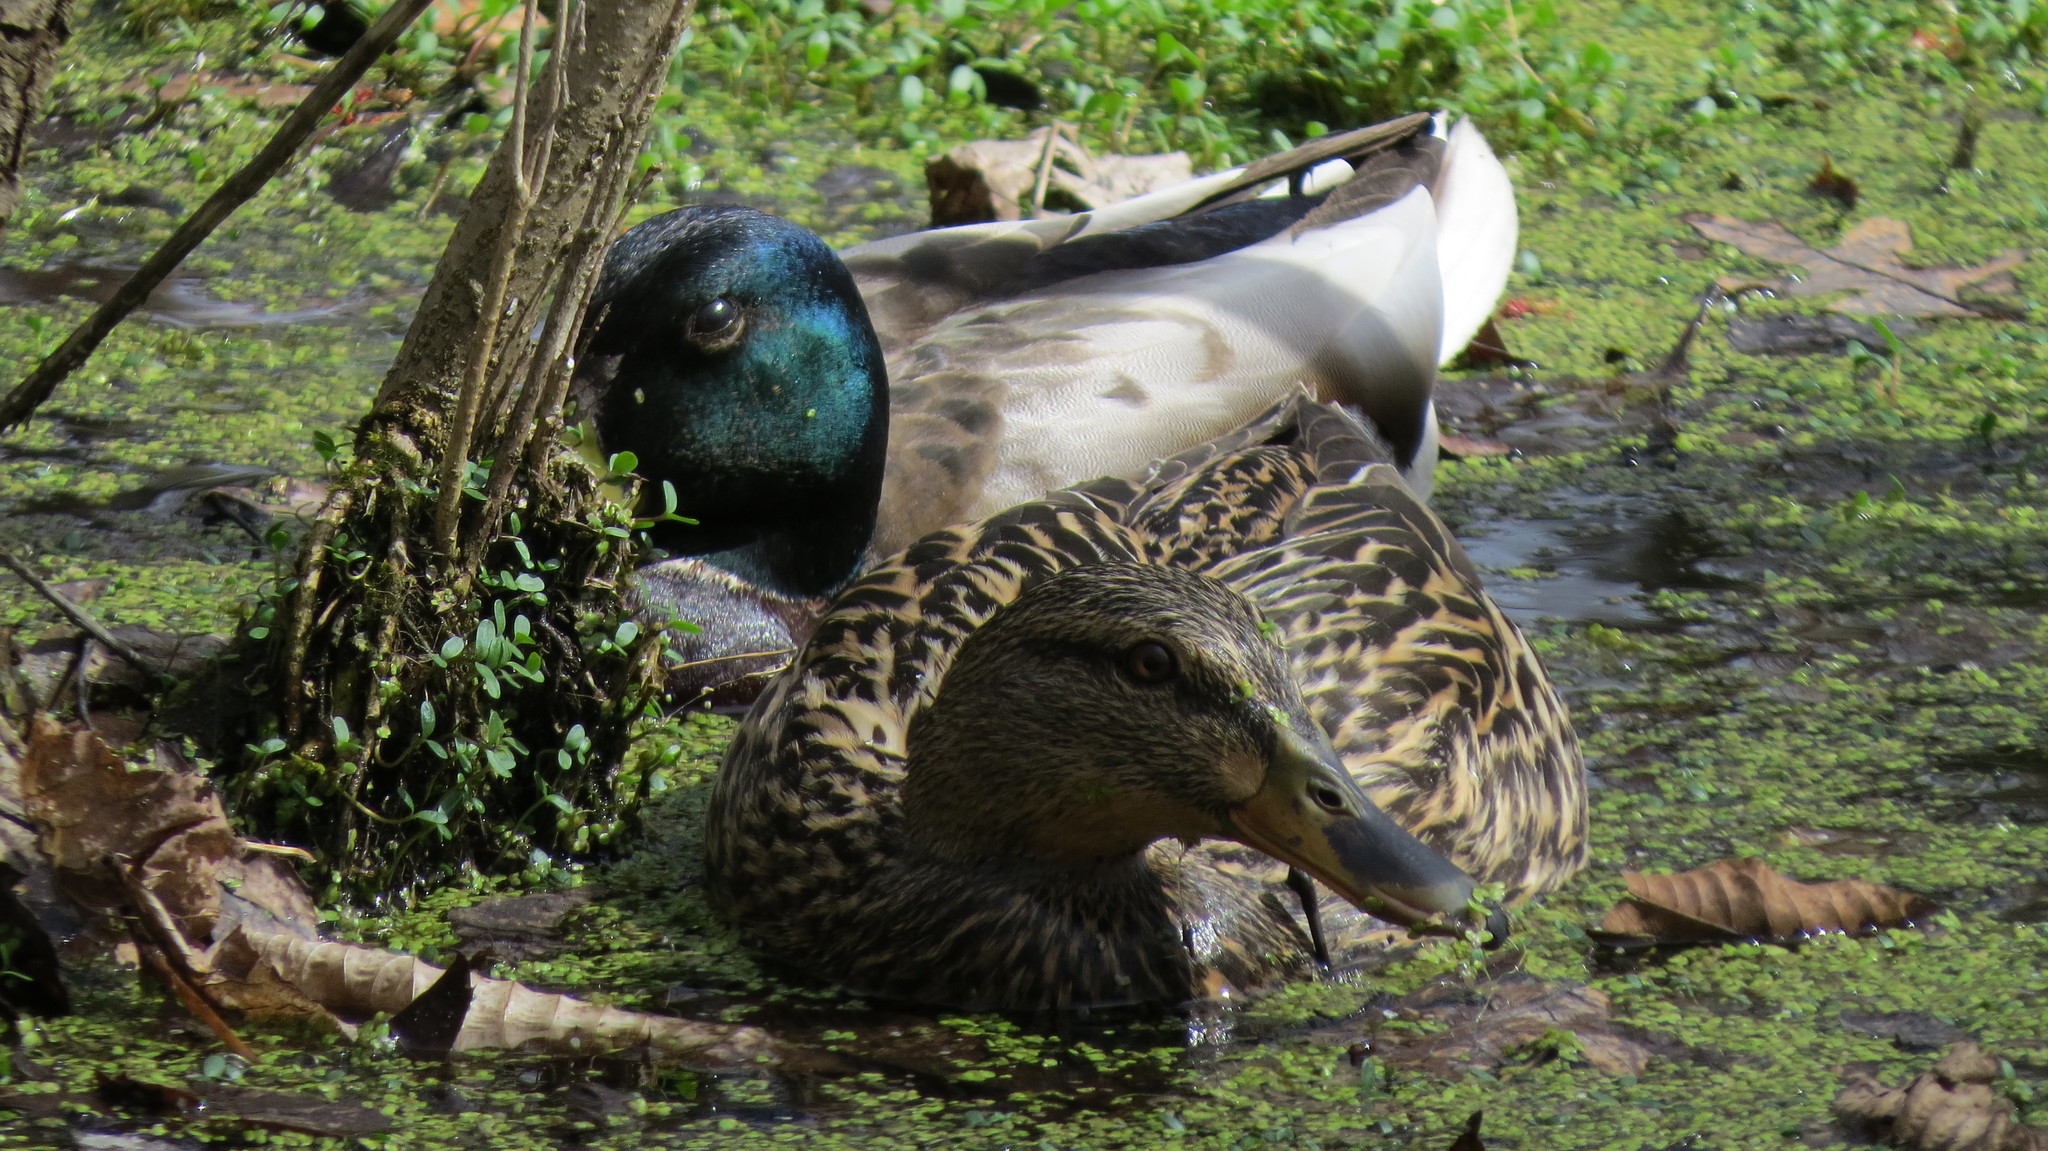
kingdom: Animalia
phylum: Chordata
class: Aves
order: Anseriformes
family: Anatidae
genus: Anas
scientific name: Anas platyrhynchos
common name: Mallard
